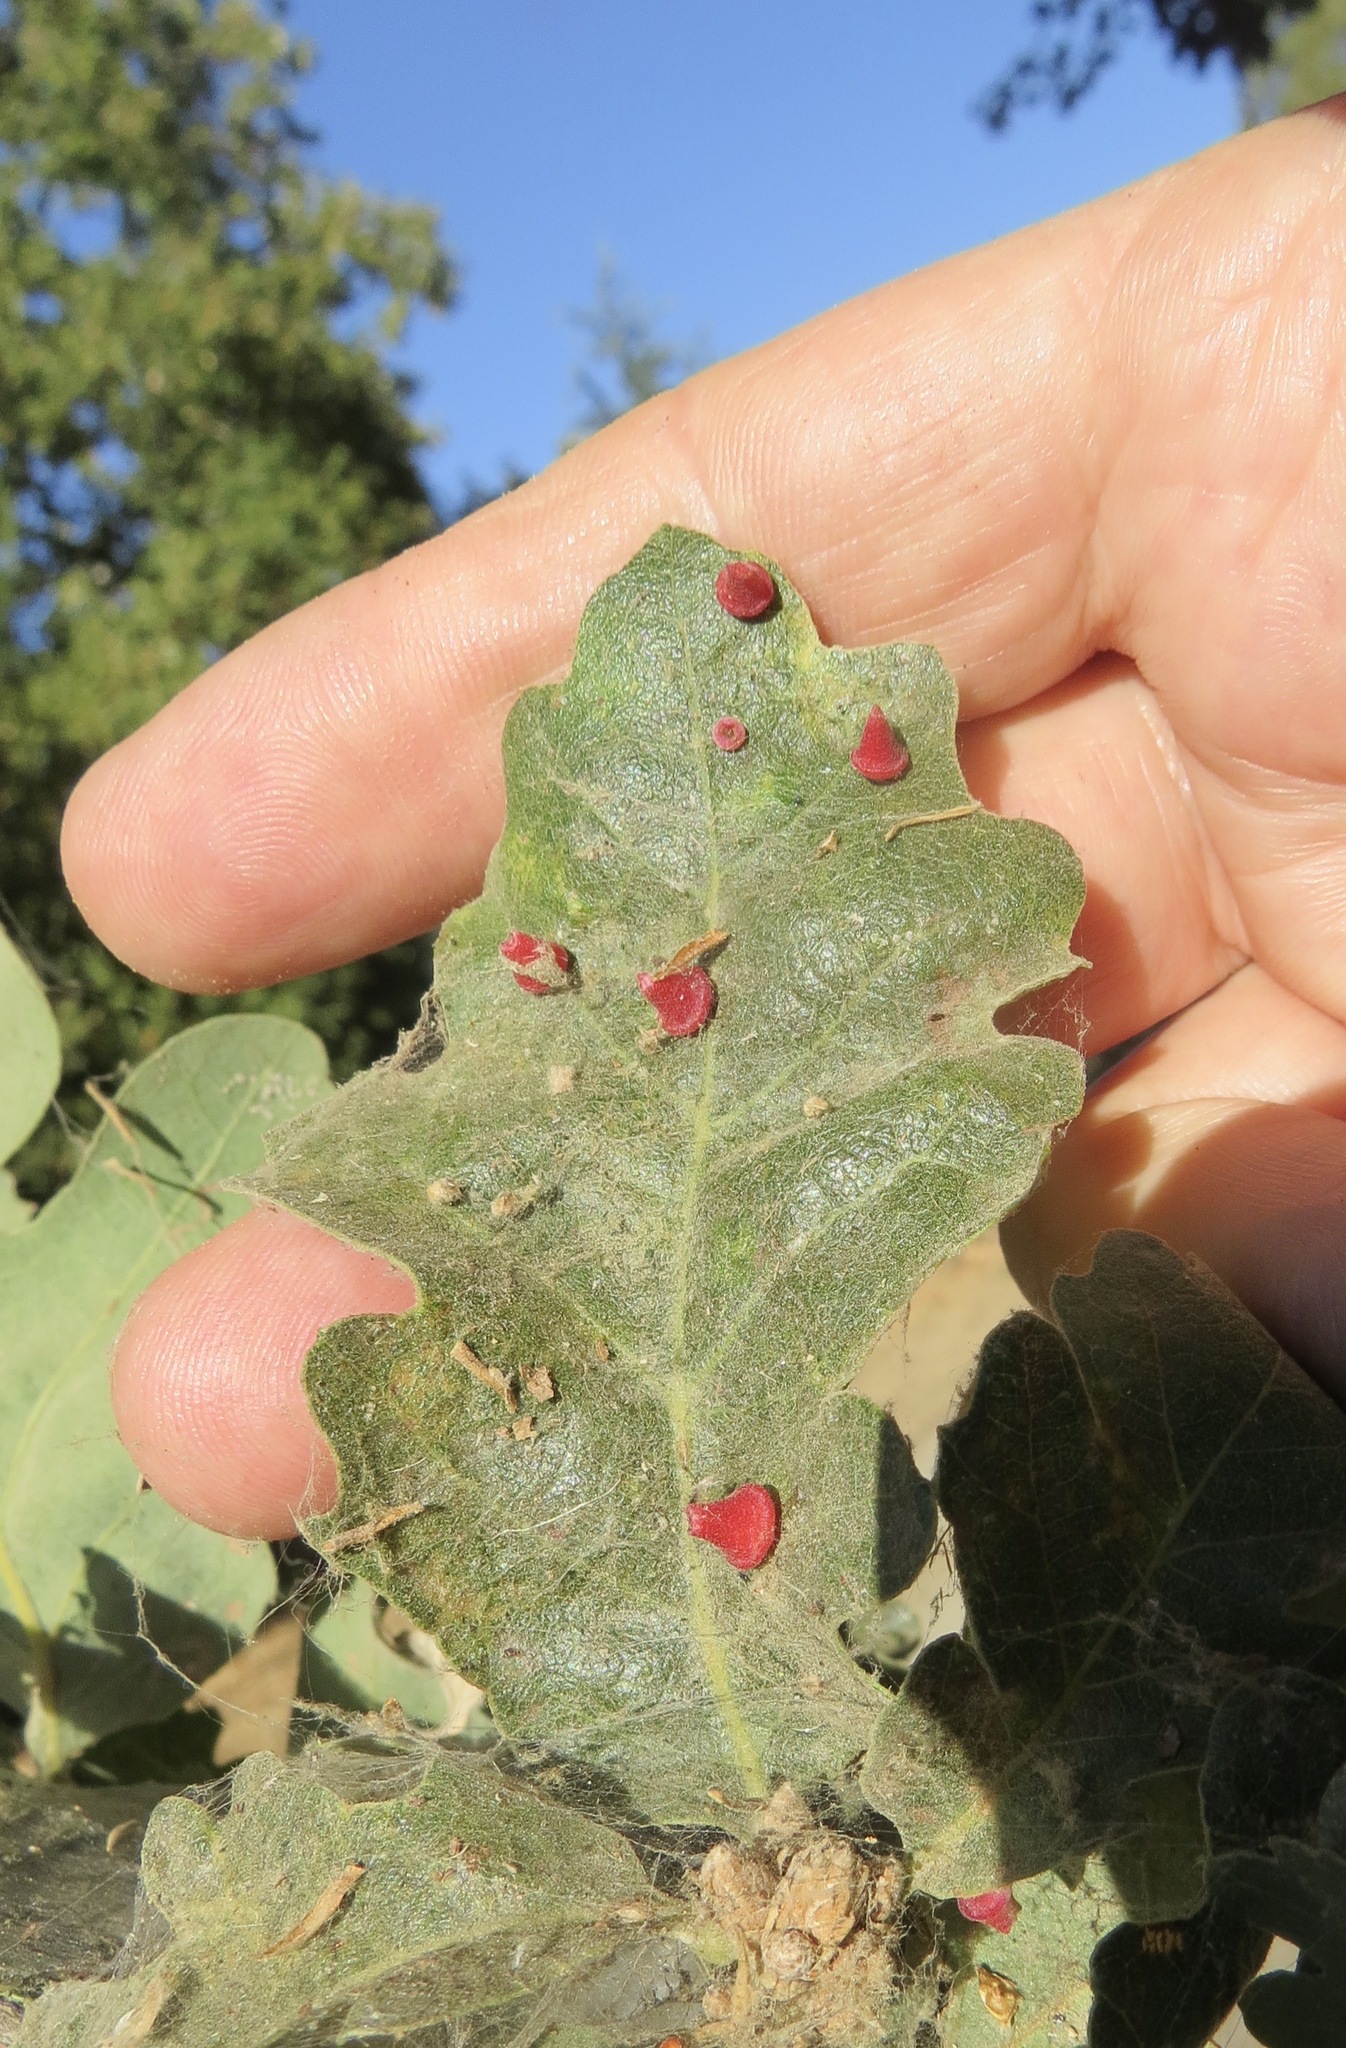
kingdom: Animalia
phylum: Arthropoda
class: Insecta
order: Hymenoptera
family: Cynipidae
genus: Andricus
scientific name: Andricus
